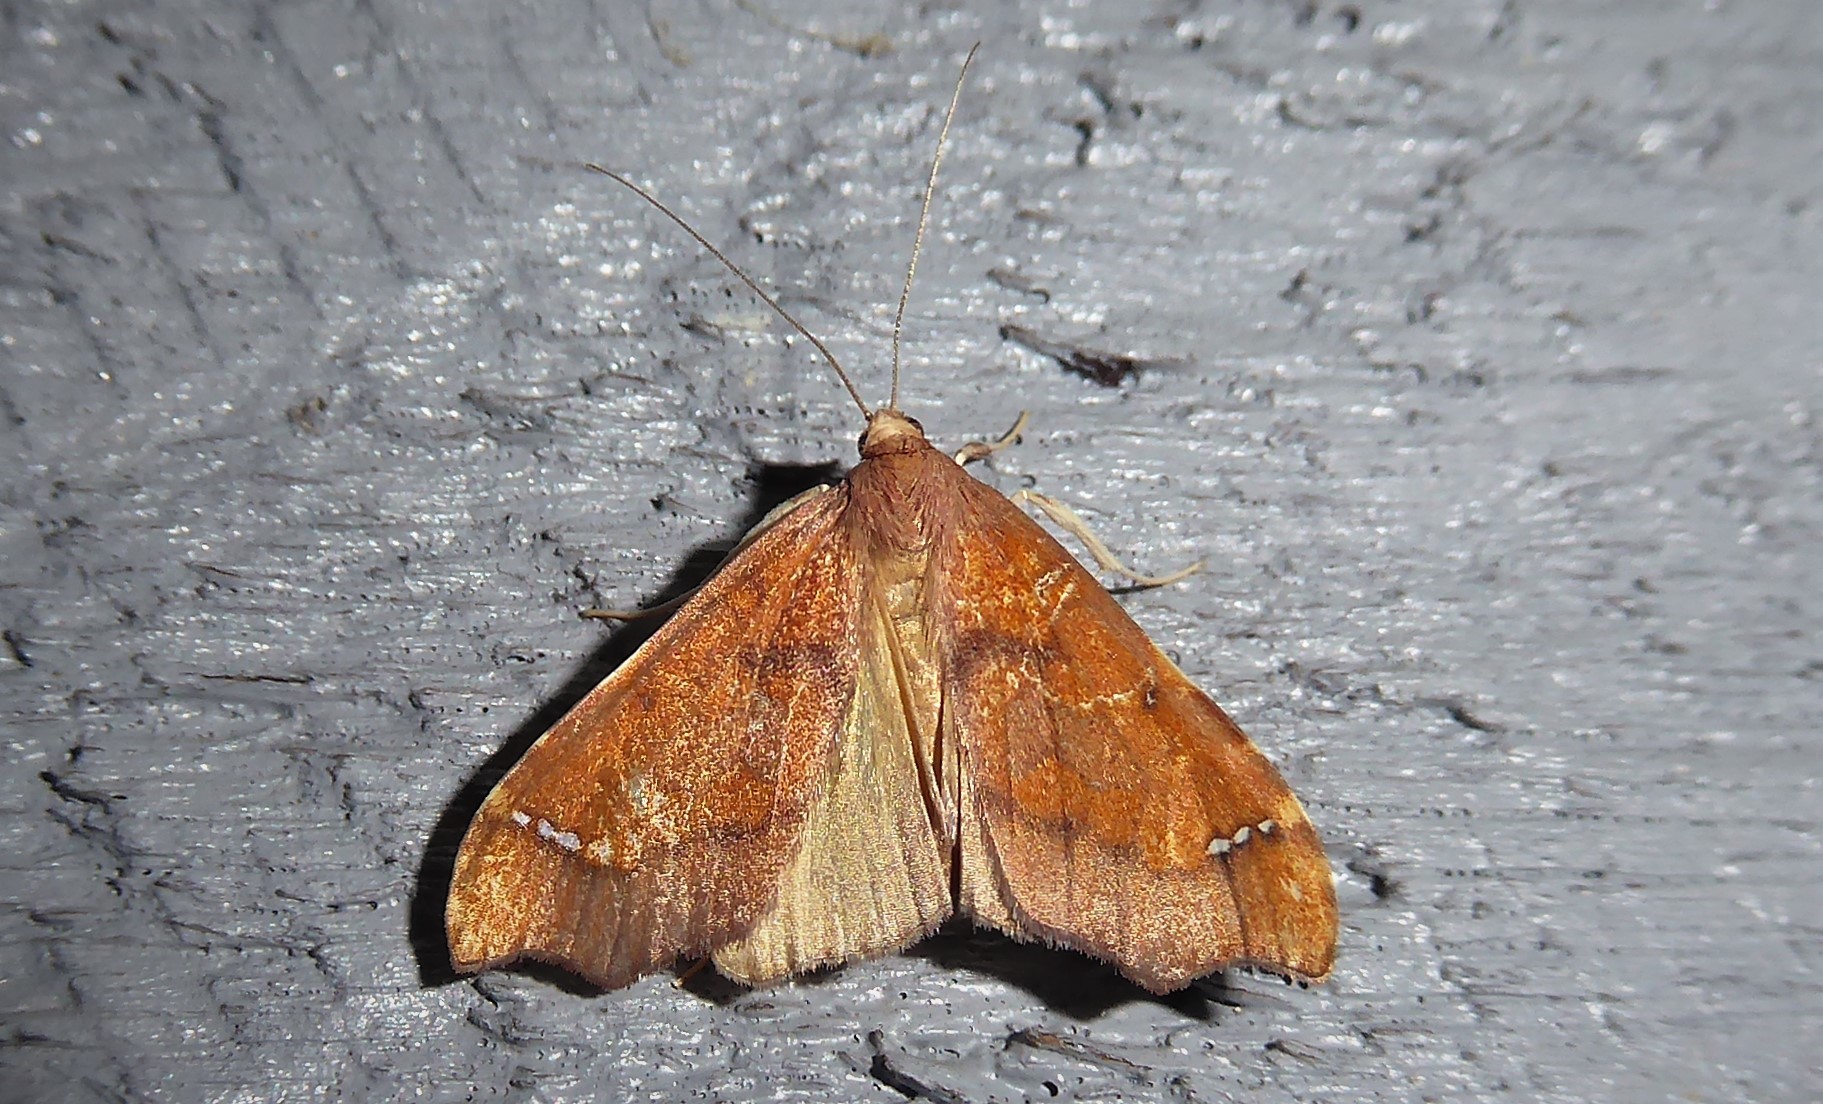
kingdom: Animalia
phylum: Arthropoda
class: Insecta
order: Lepidoptera
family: Crambidae
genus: Deana
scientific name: Deana hybreasalis
